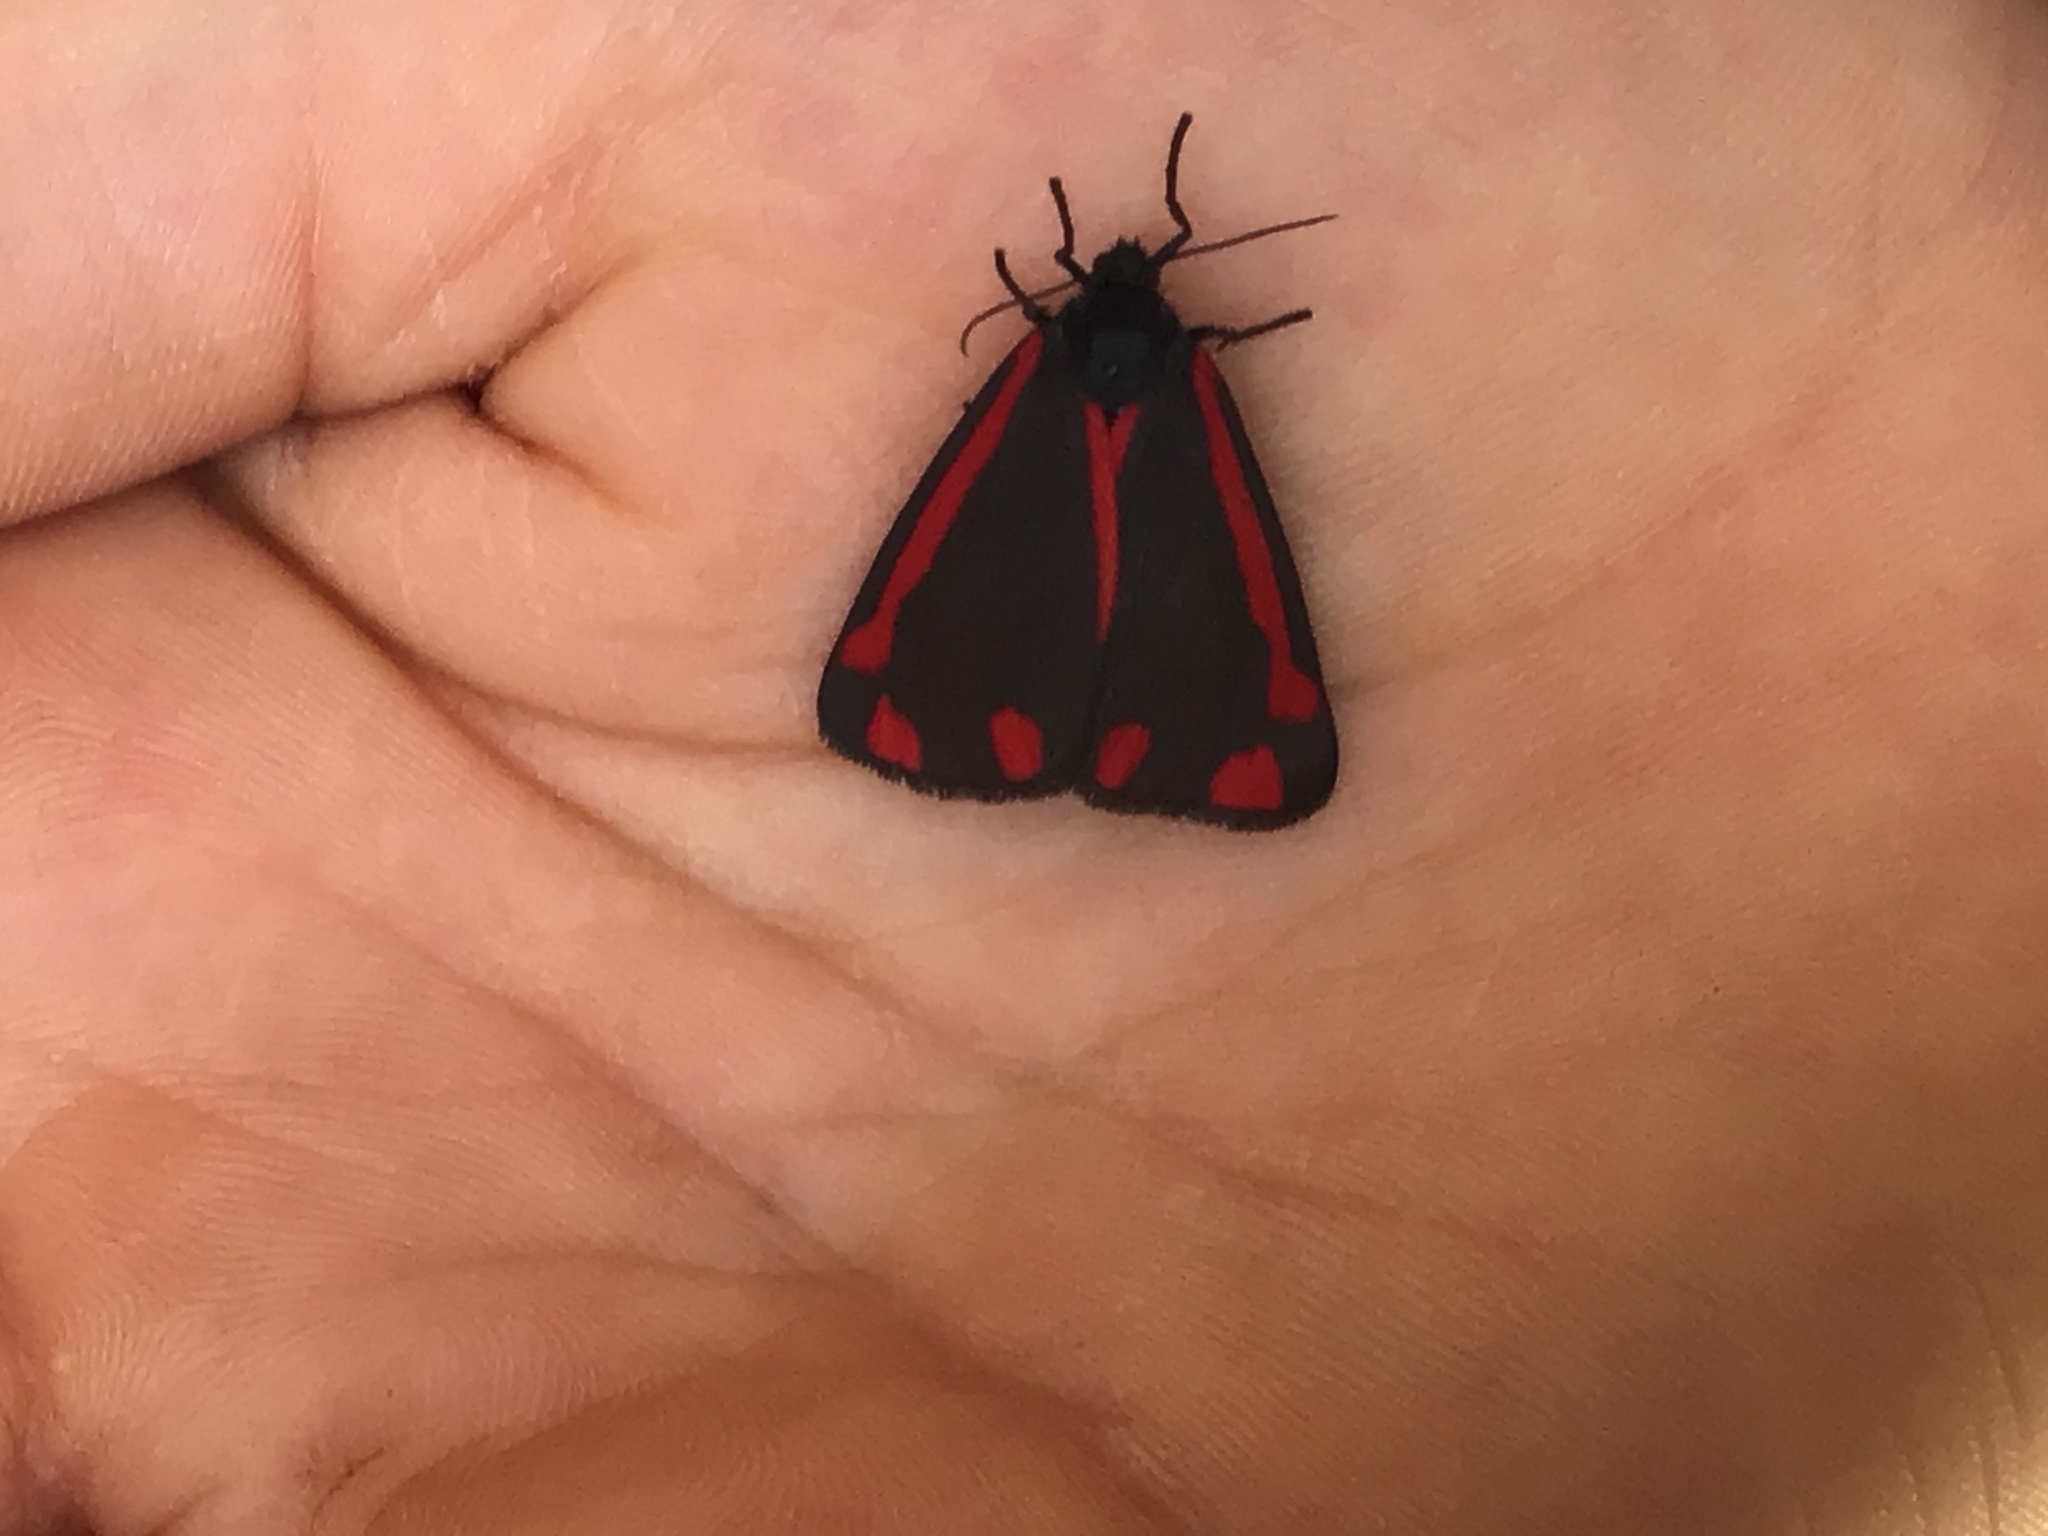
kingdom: Animalia
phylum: Arthropoda
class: Insecta
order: Lepidoptera
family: Erebidae
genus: Tyria
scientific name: Tyria jacobaeae
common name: Cinnabar
